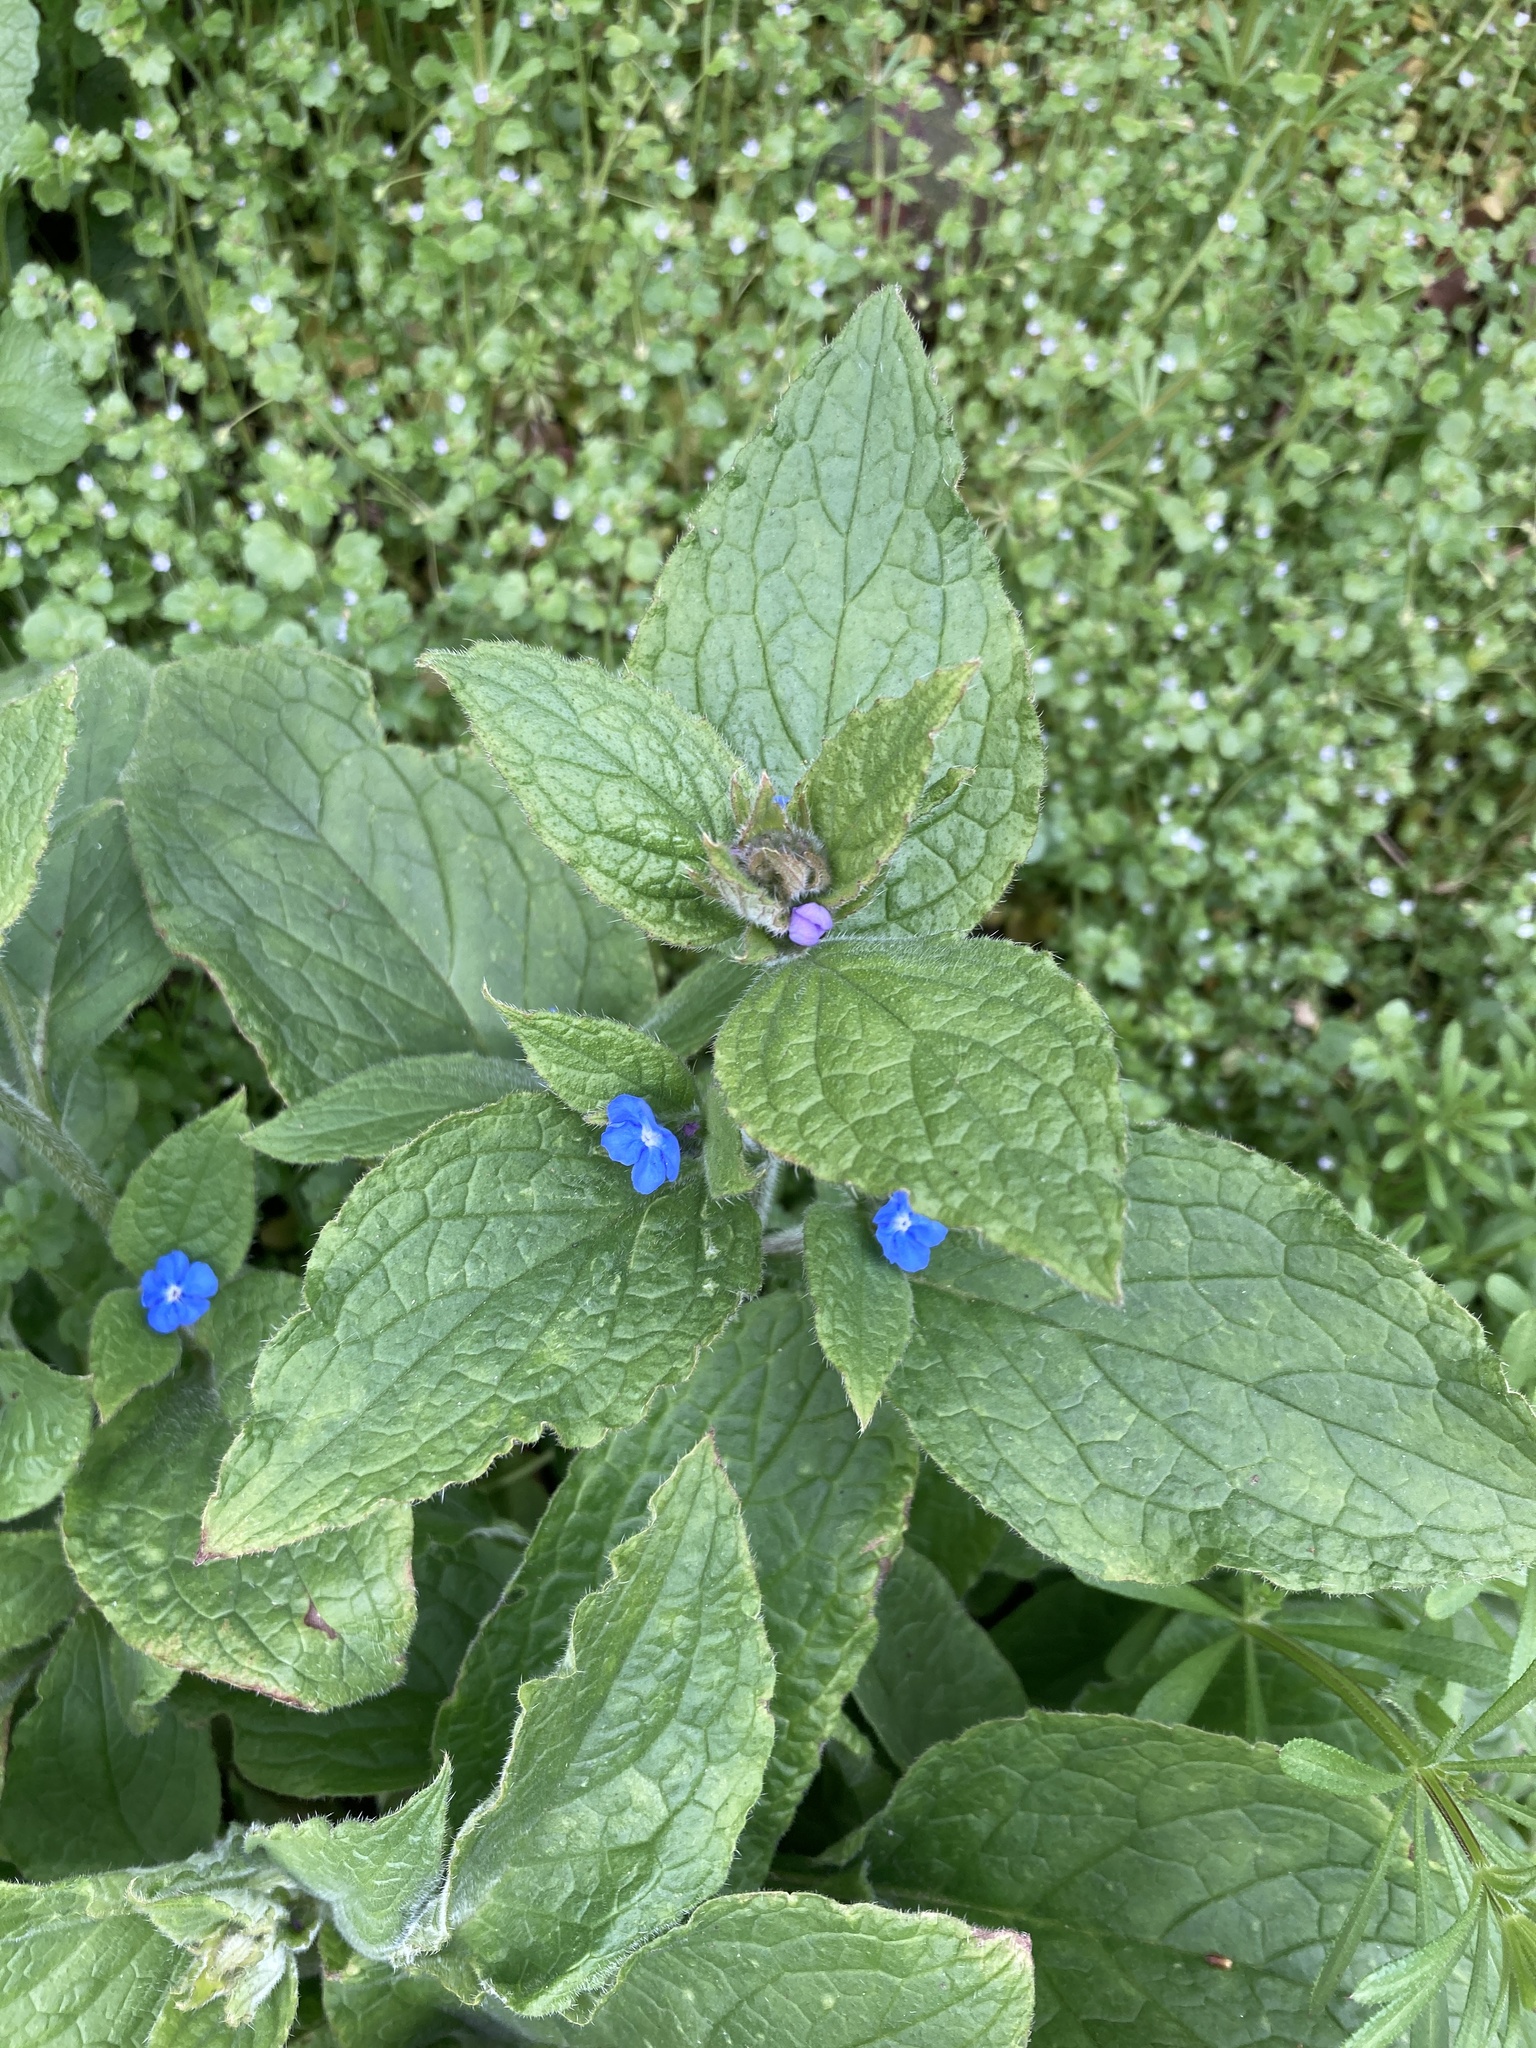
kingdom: Plantae
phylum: Tracheophyta
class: Magnoliopsida
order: Boraginales
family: Boraginaceae
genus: Pentaglottis
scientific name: Pentaglottis sempervirens
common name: Green alkanet
